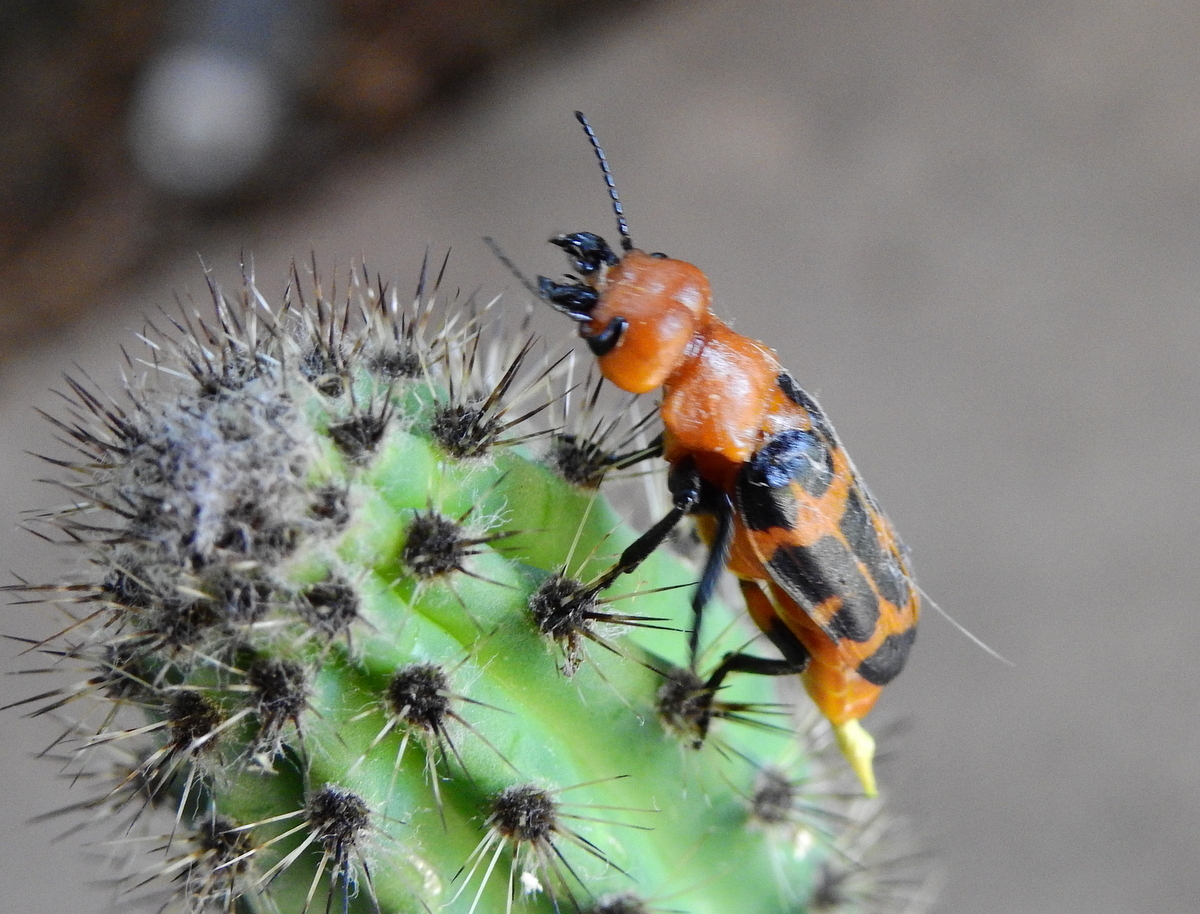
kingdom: Animalia
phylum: Arthropoda
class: Insecta
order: Coleoptera
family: Meloidae
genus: Cissites
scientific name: Cissites maculata
